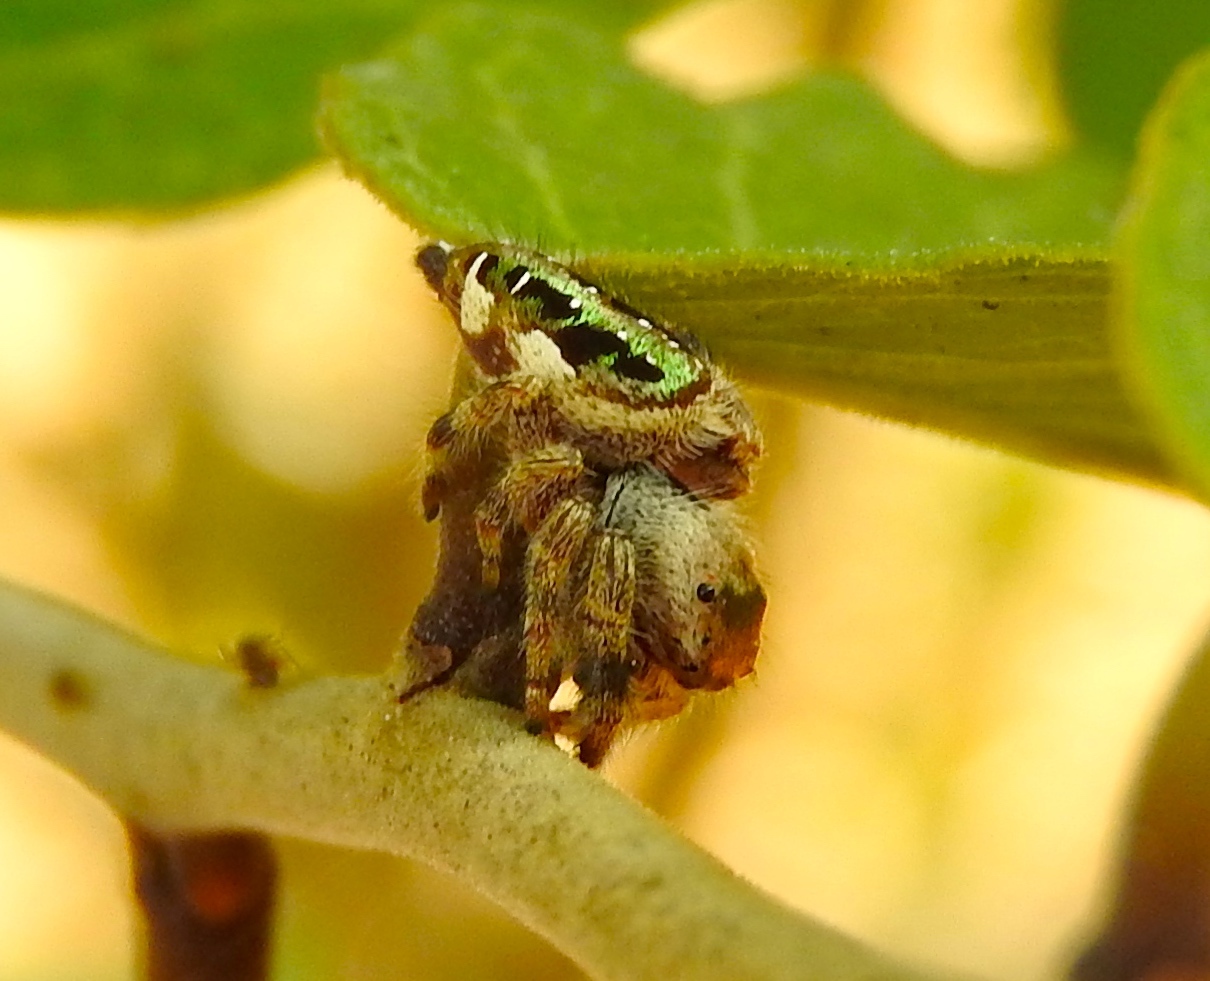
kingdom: Animalia
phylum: Arthropoda
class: Arachnida
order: Araneae
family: Salticidae
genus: Paraphidippus
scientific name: Paraphidippus
